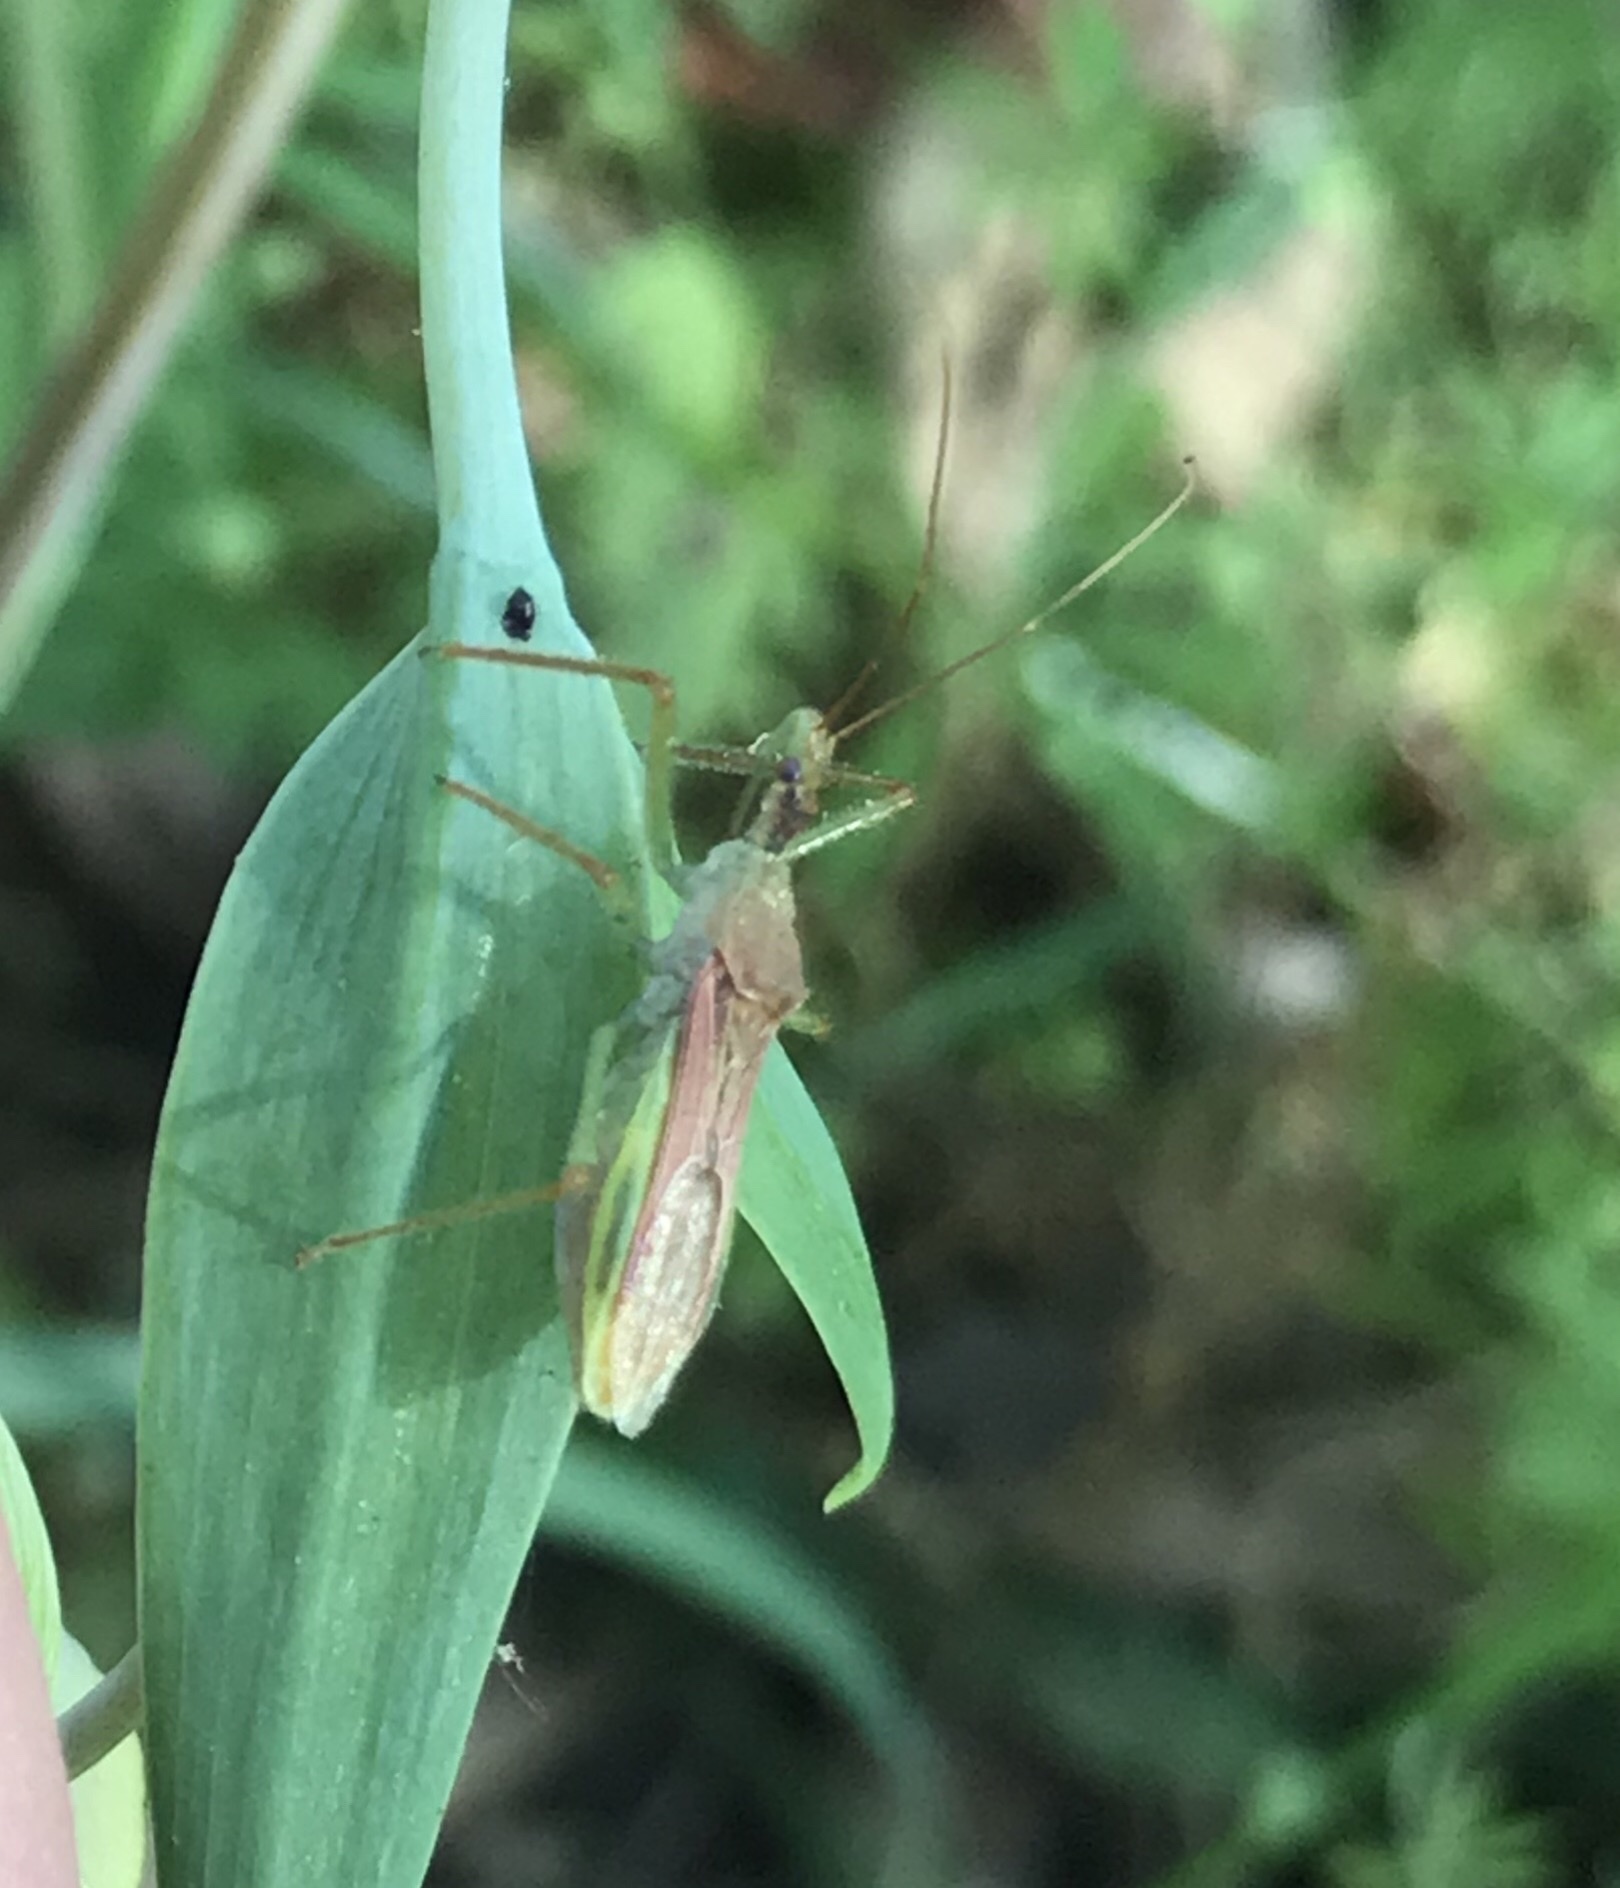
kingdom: Animalia
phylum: Arthropoda
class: Insecta
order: Hemiptera
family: Reduviidae
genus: Zelus
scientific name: Zelus renardii
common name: Assassin bug
